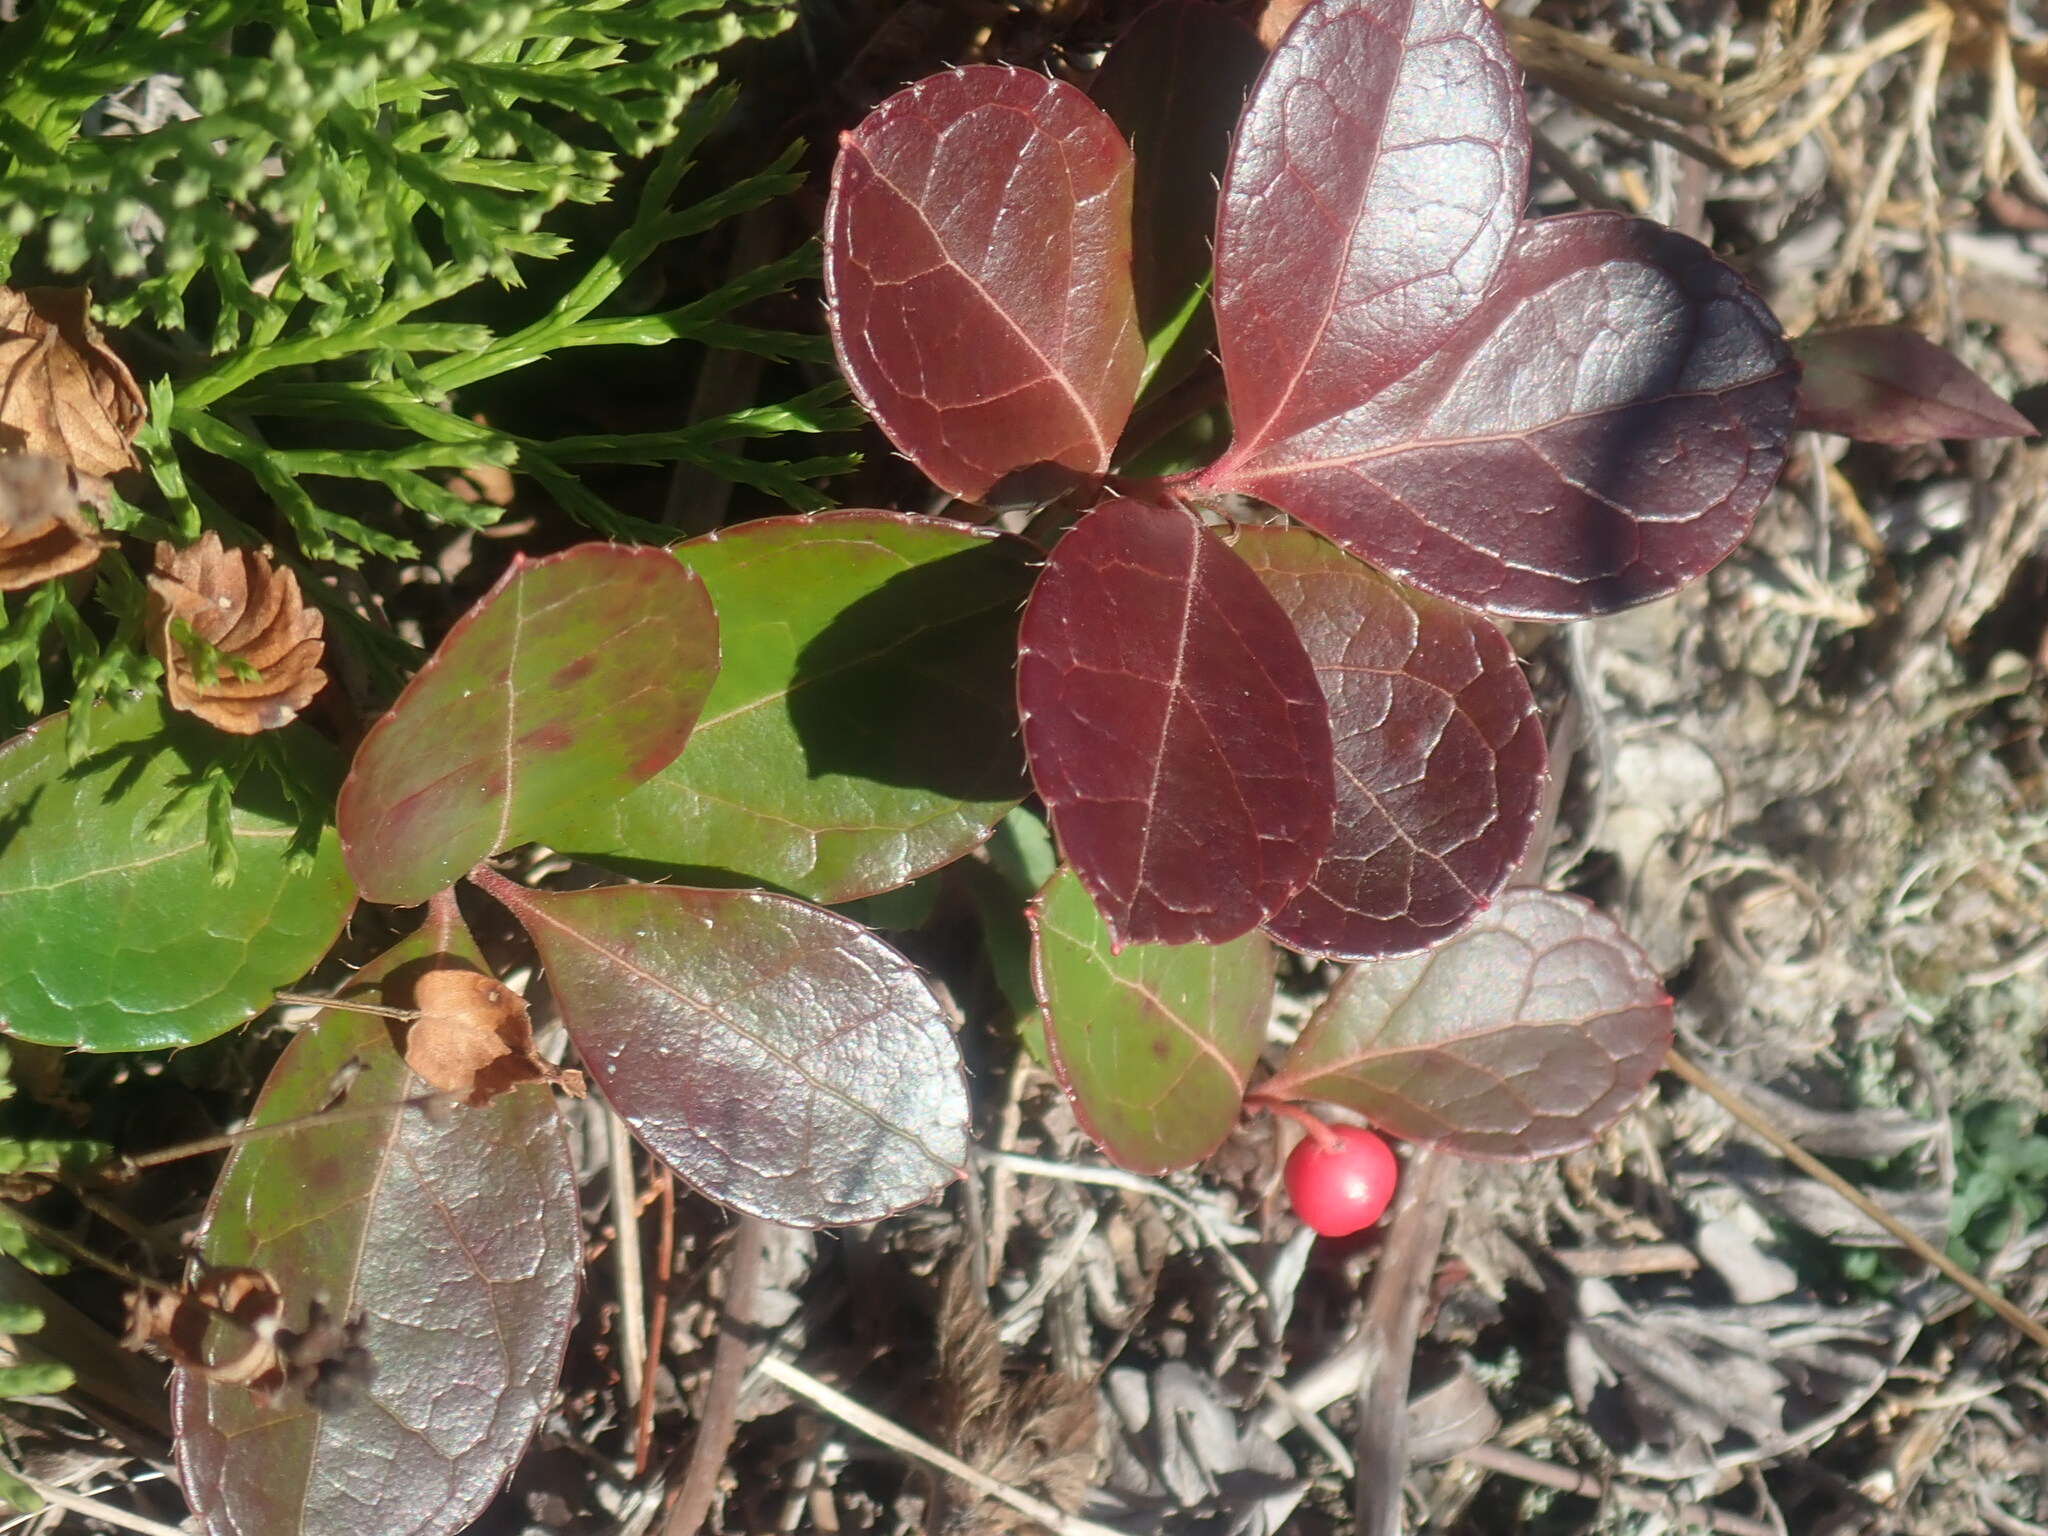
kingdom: Plantae
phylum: Tracheophyta
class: Magnoliopsida
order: Ericales
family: Ericaceae
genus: Gaultheria
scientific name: Gaultheria procumbens
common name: Checkerberry
